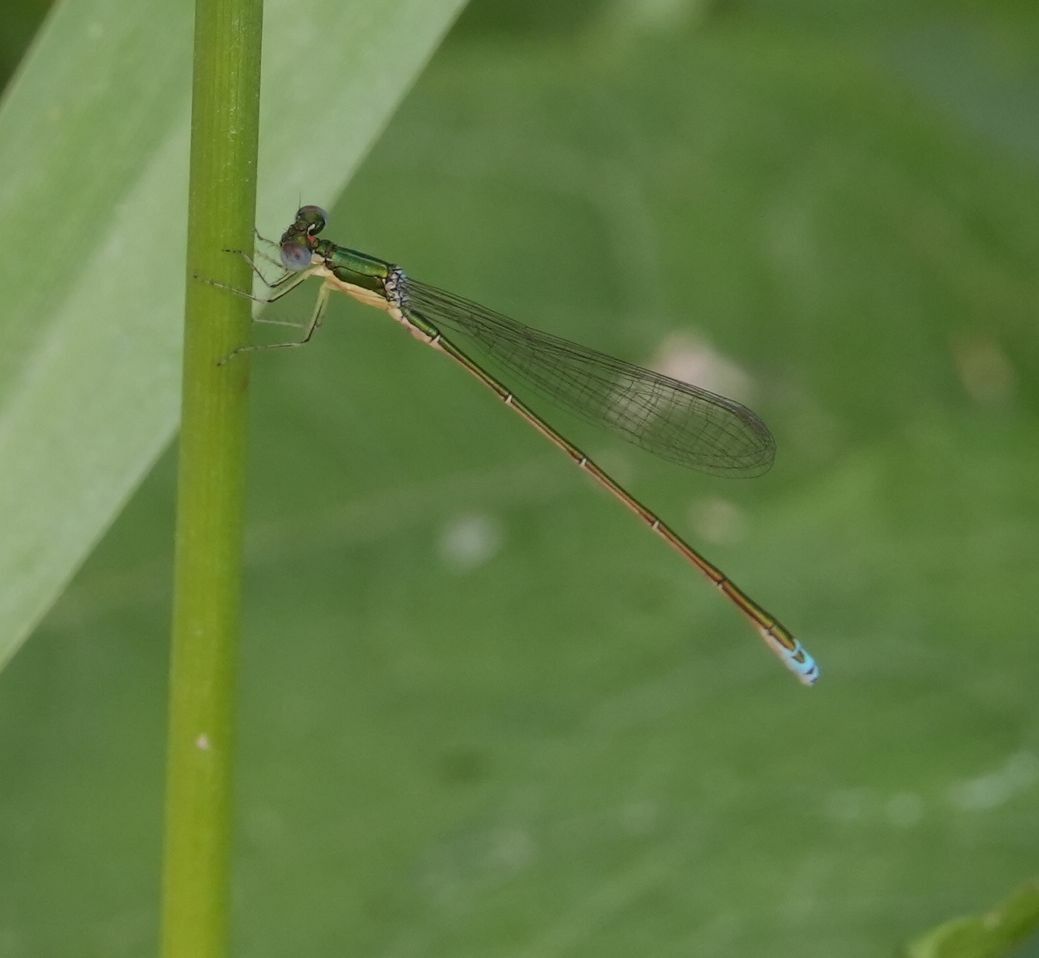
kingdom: Animalia
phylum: Arthropoda
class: Insecta
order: Odonata
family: Coenagrionidae
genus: Nehalennia
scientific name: Nehalennia irene
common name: Sedge sprite
